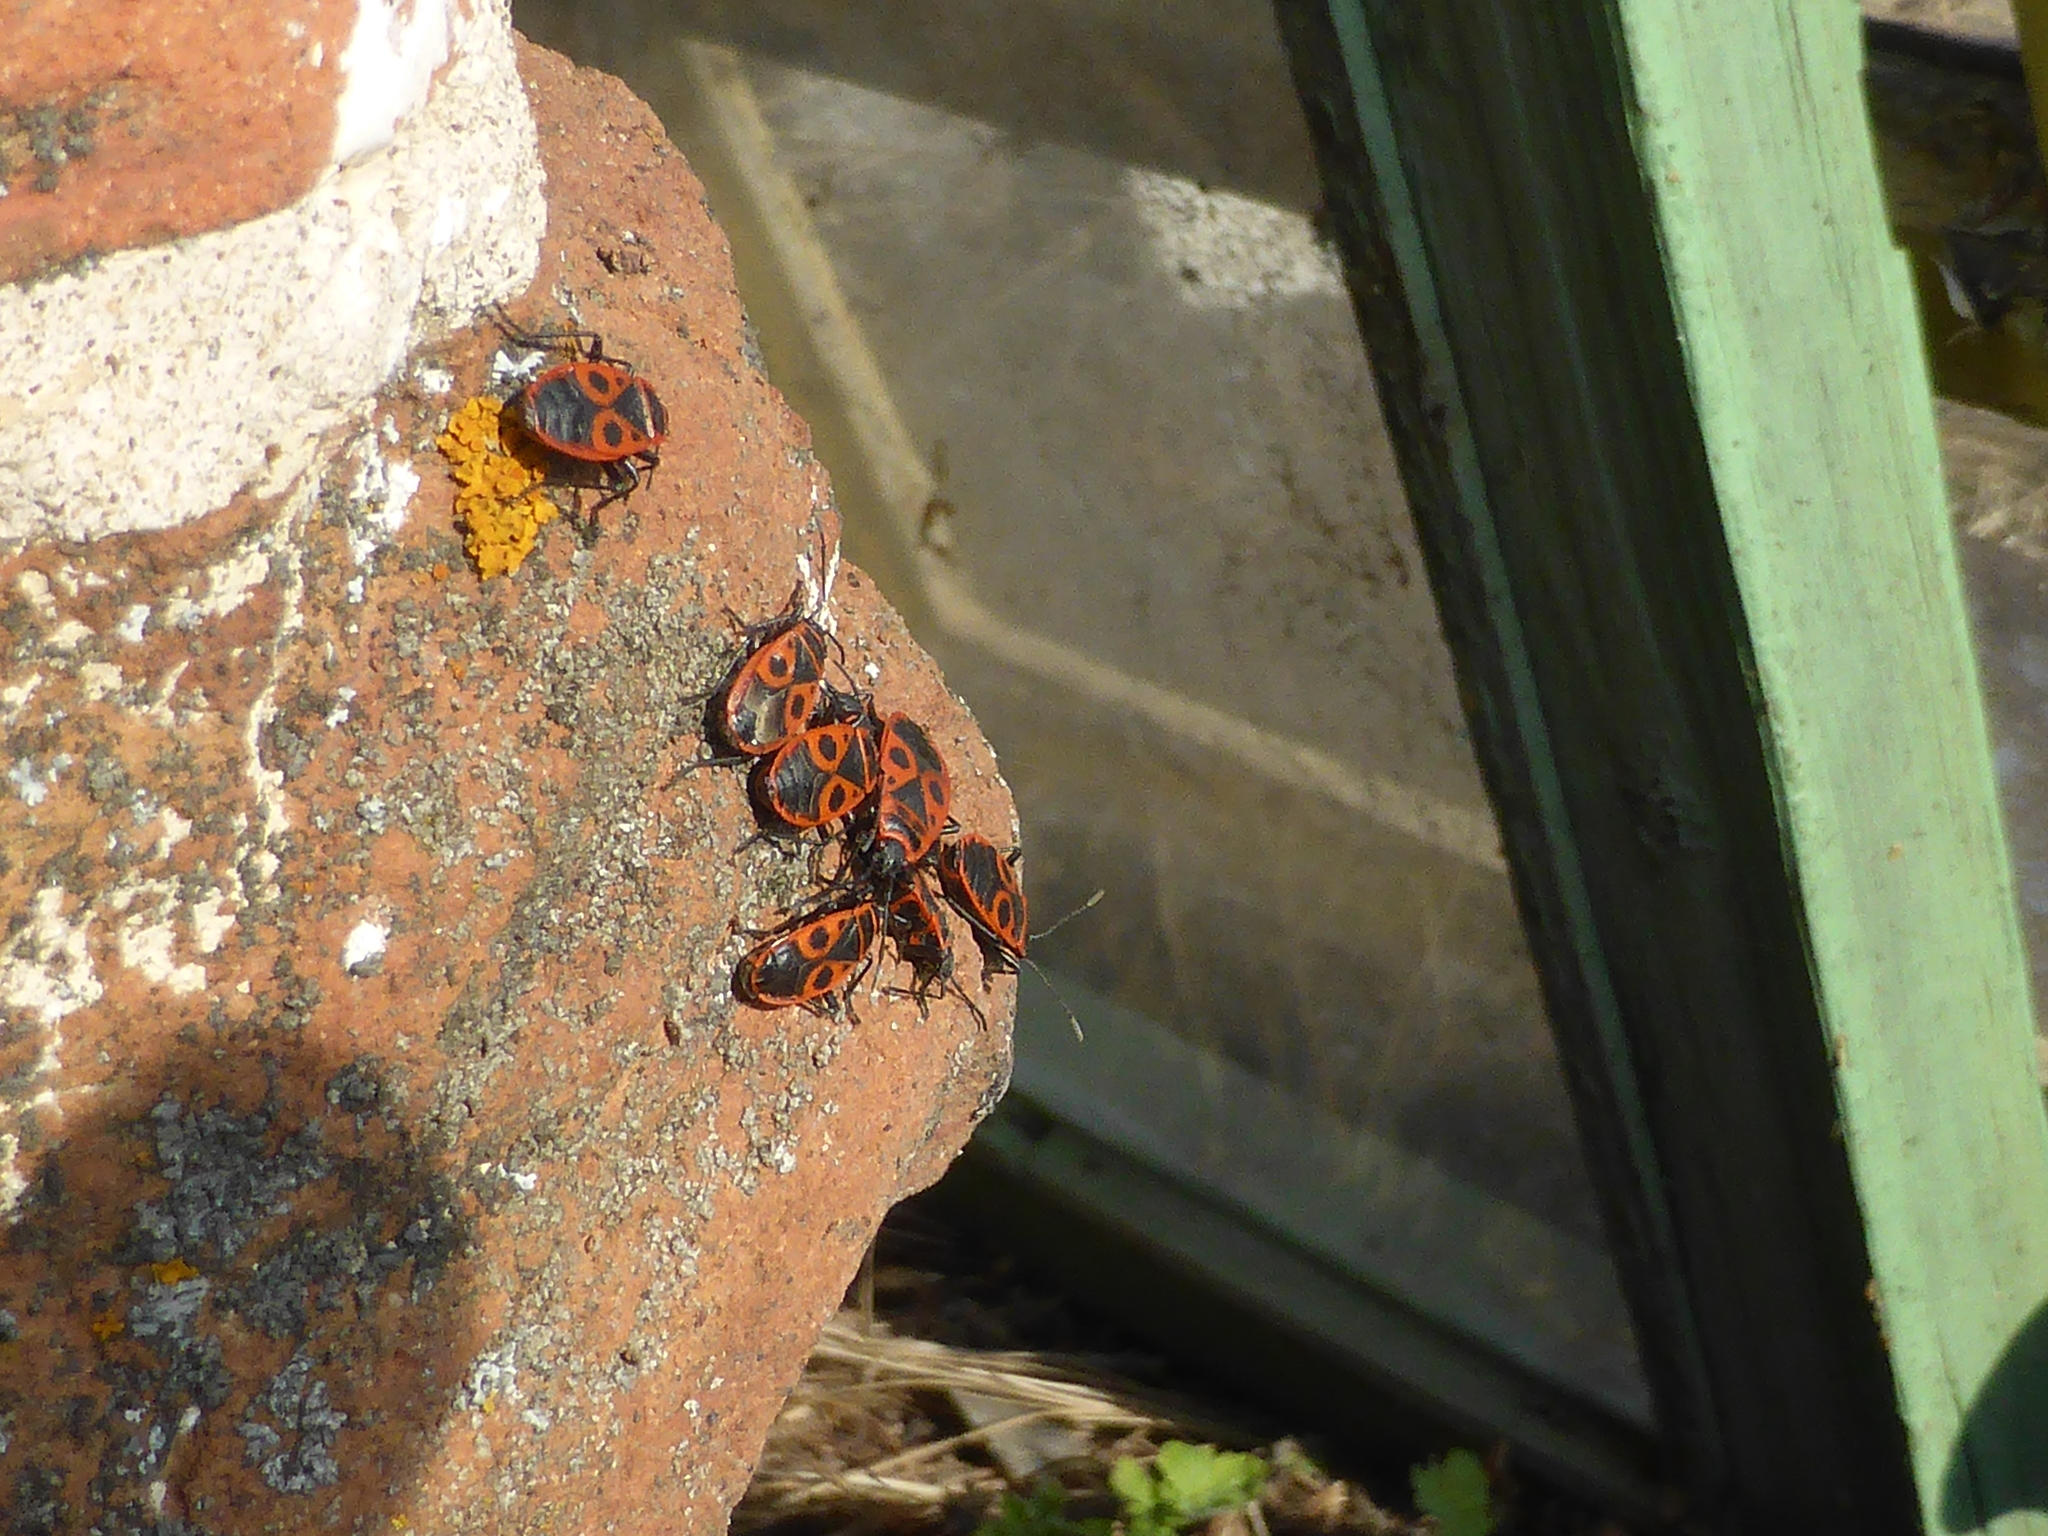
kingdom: Animalia
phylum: Arthropoda
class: Insecta
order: Hemiptera
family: Pyrrhocoridae
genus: Pyrrhocoris
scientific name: Pyrrhocoris apterus
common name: Firebug
